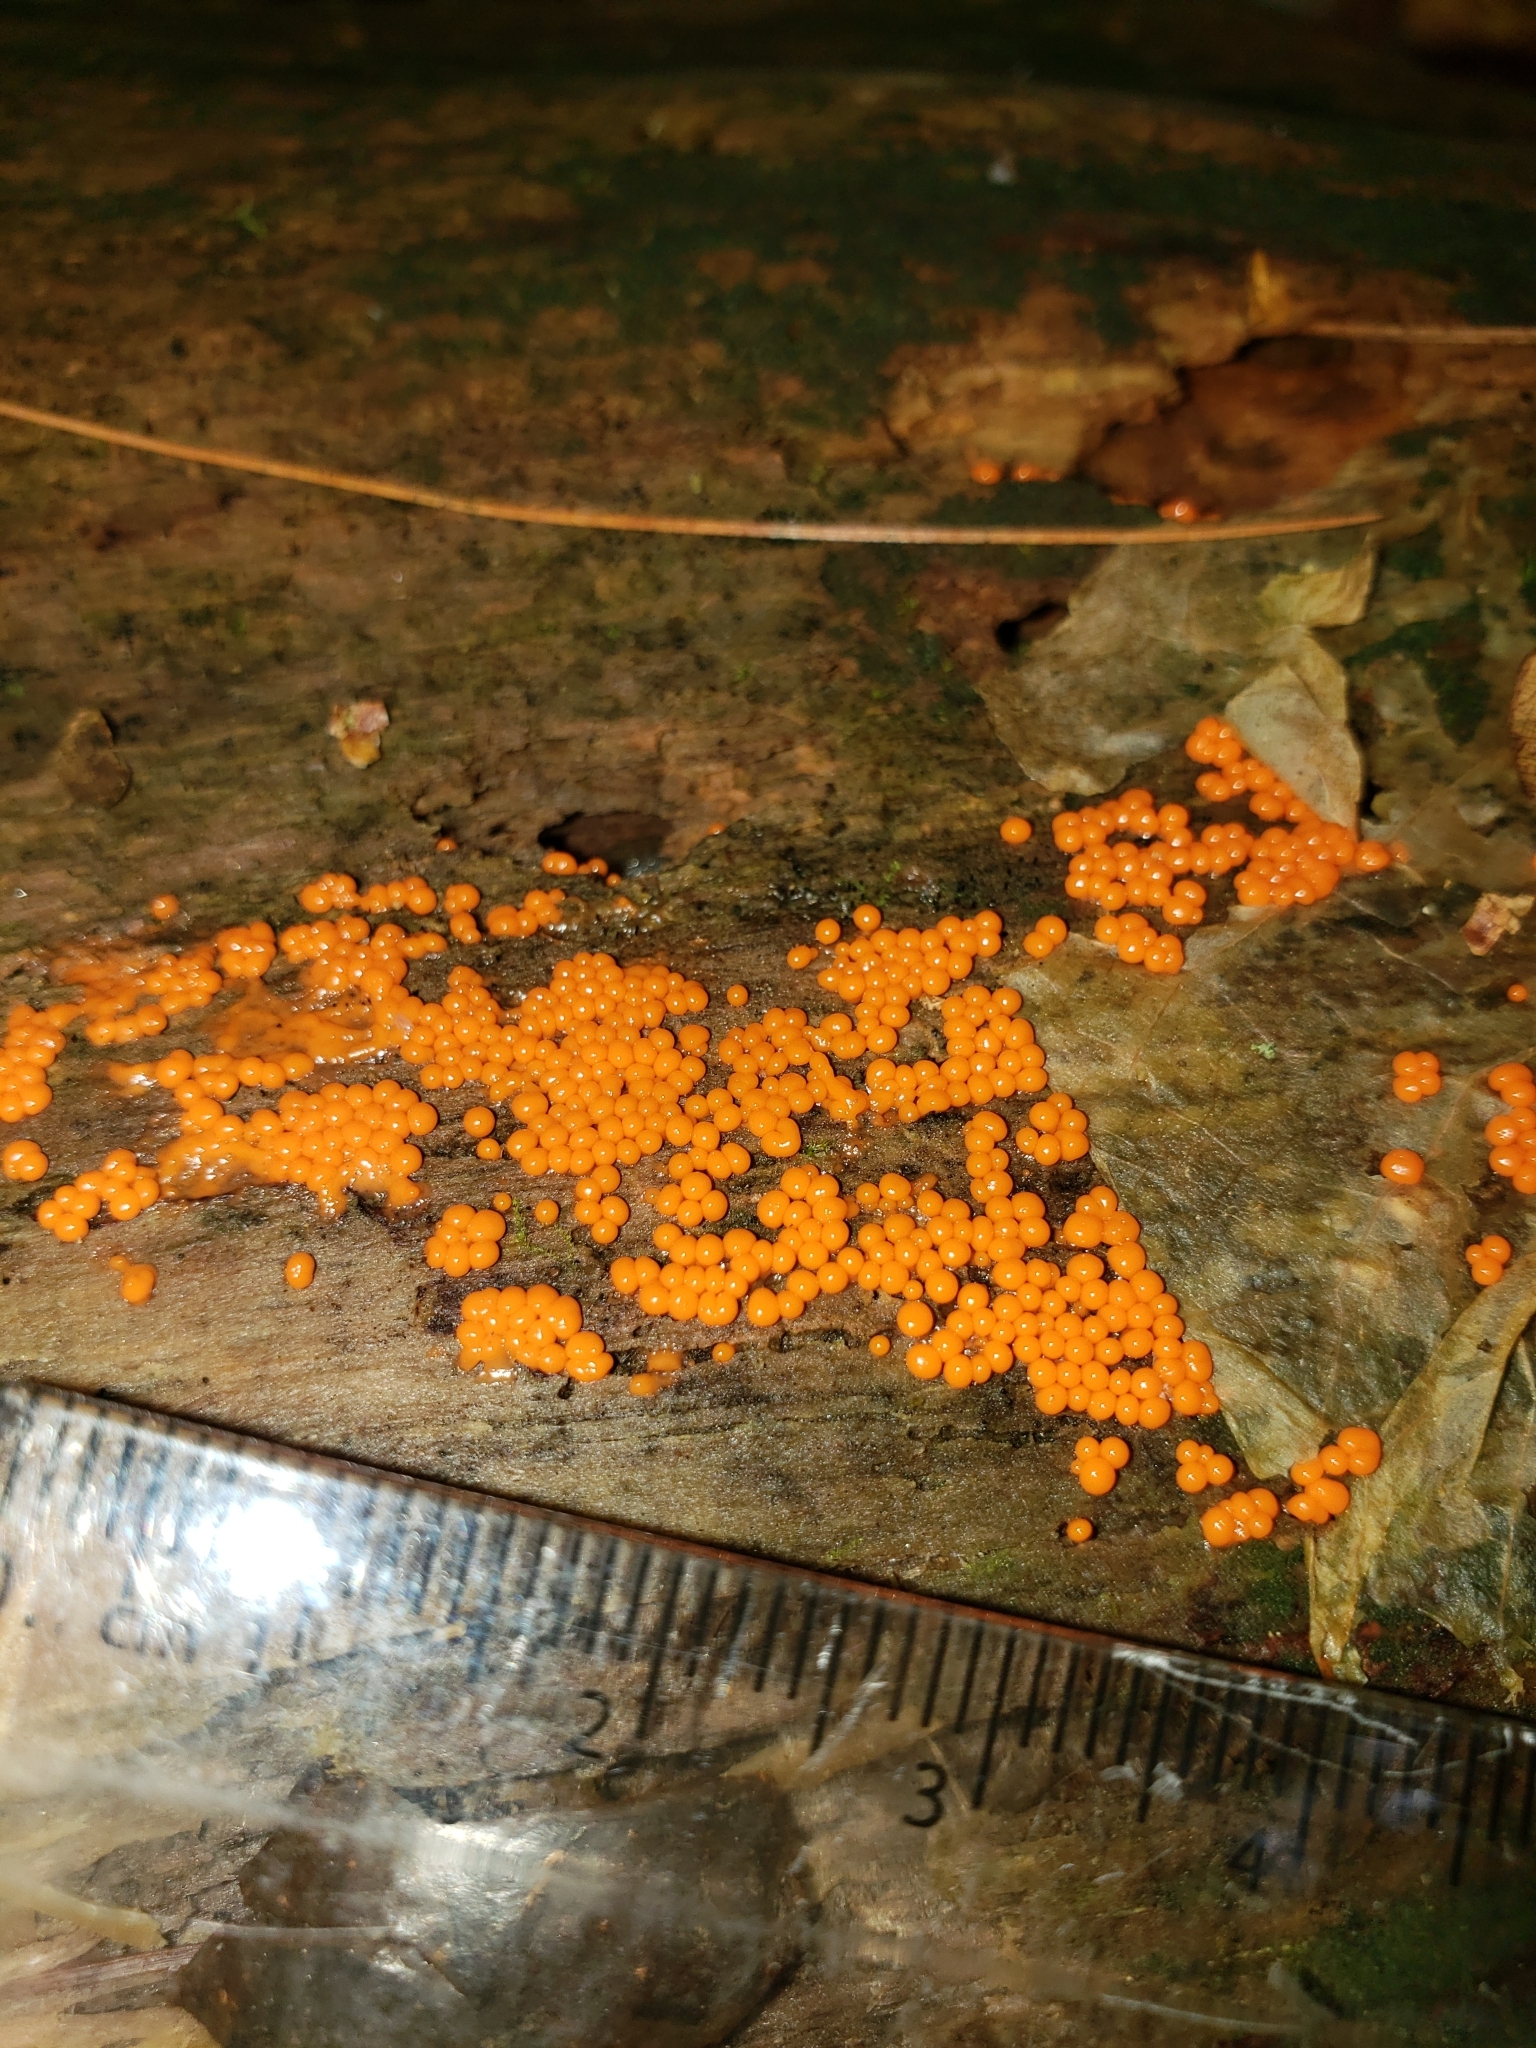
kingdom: Fungi
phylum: Basidiomycota
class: Dacrymycetes
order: Dacrymycetales
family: Dacrymycetaceae
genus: Dacrymyces
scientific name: Dacrymyces stillatus
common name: Common jelly spot
